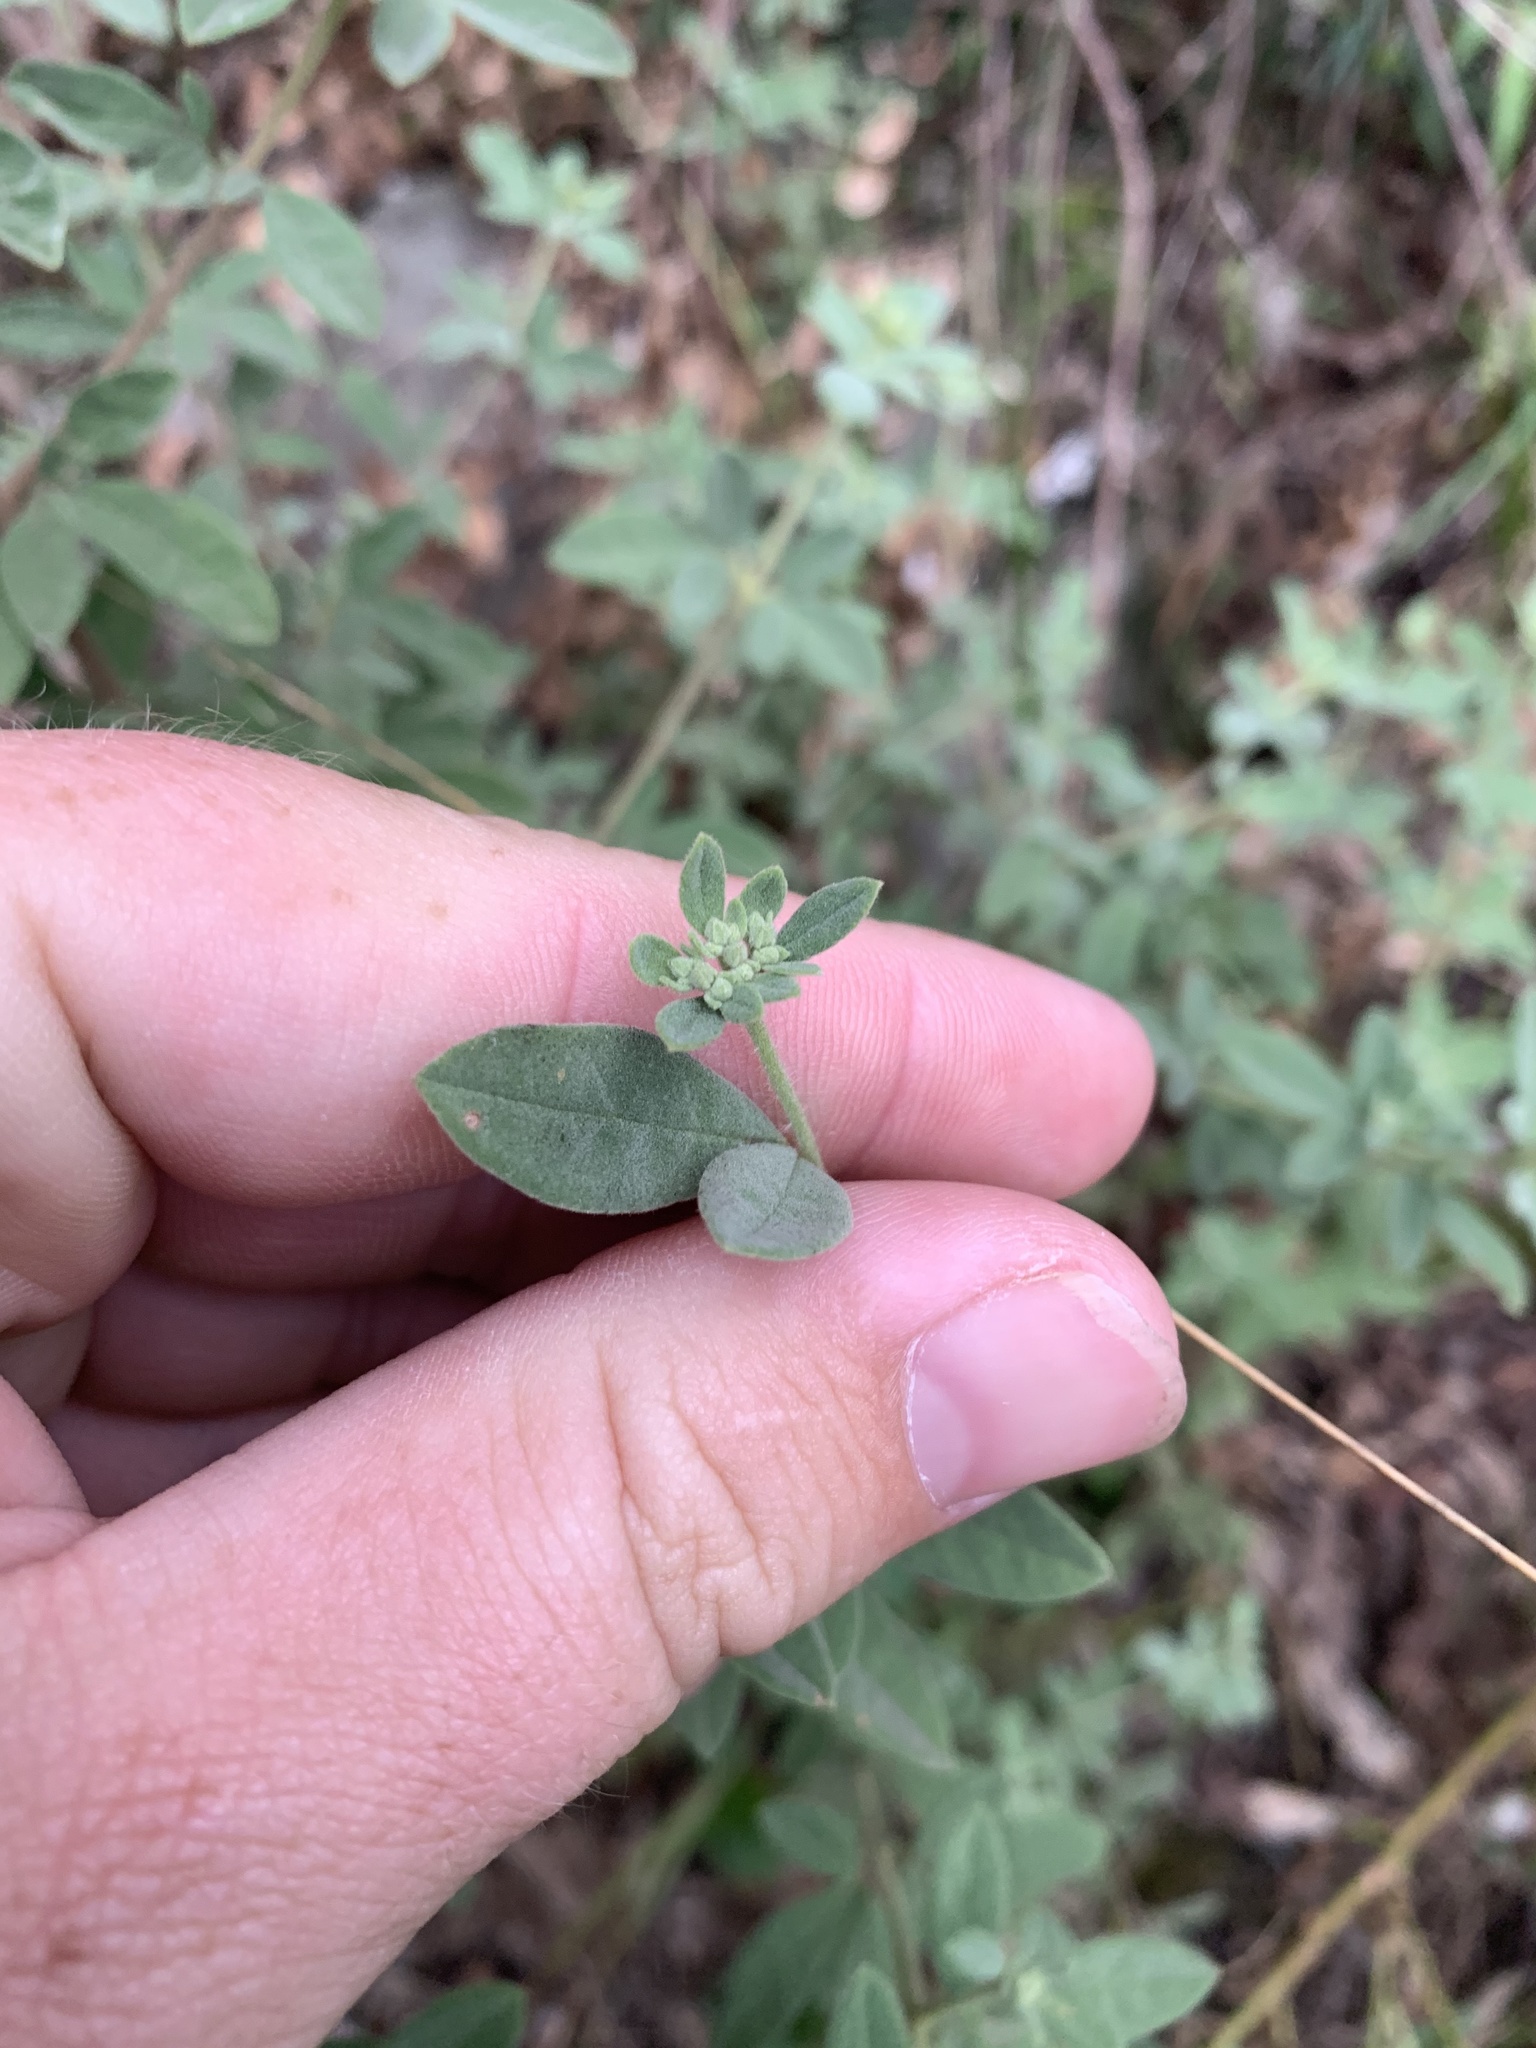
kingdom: Plantae
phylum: Tracheophyta
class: Magnoliopsida
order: Sapindales
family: Rutaceae
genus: Zieria
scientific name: Zieria cytisoides
